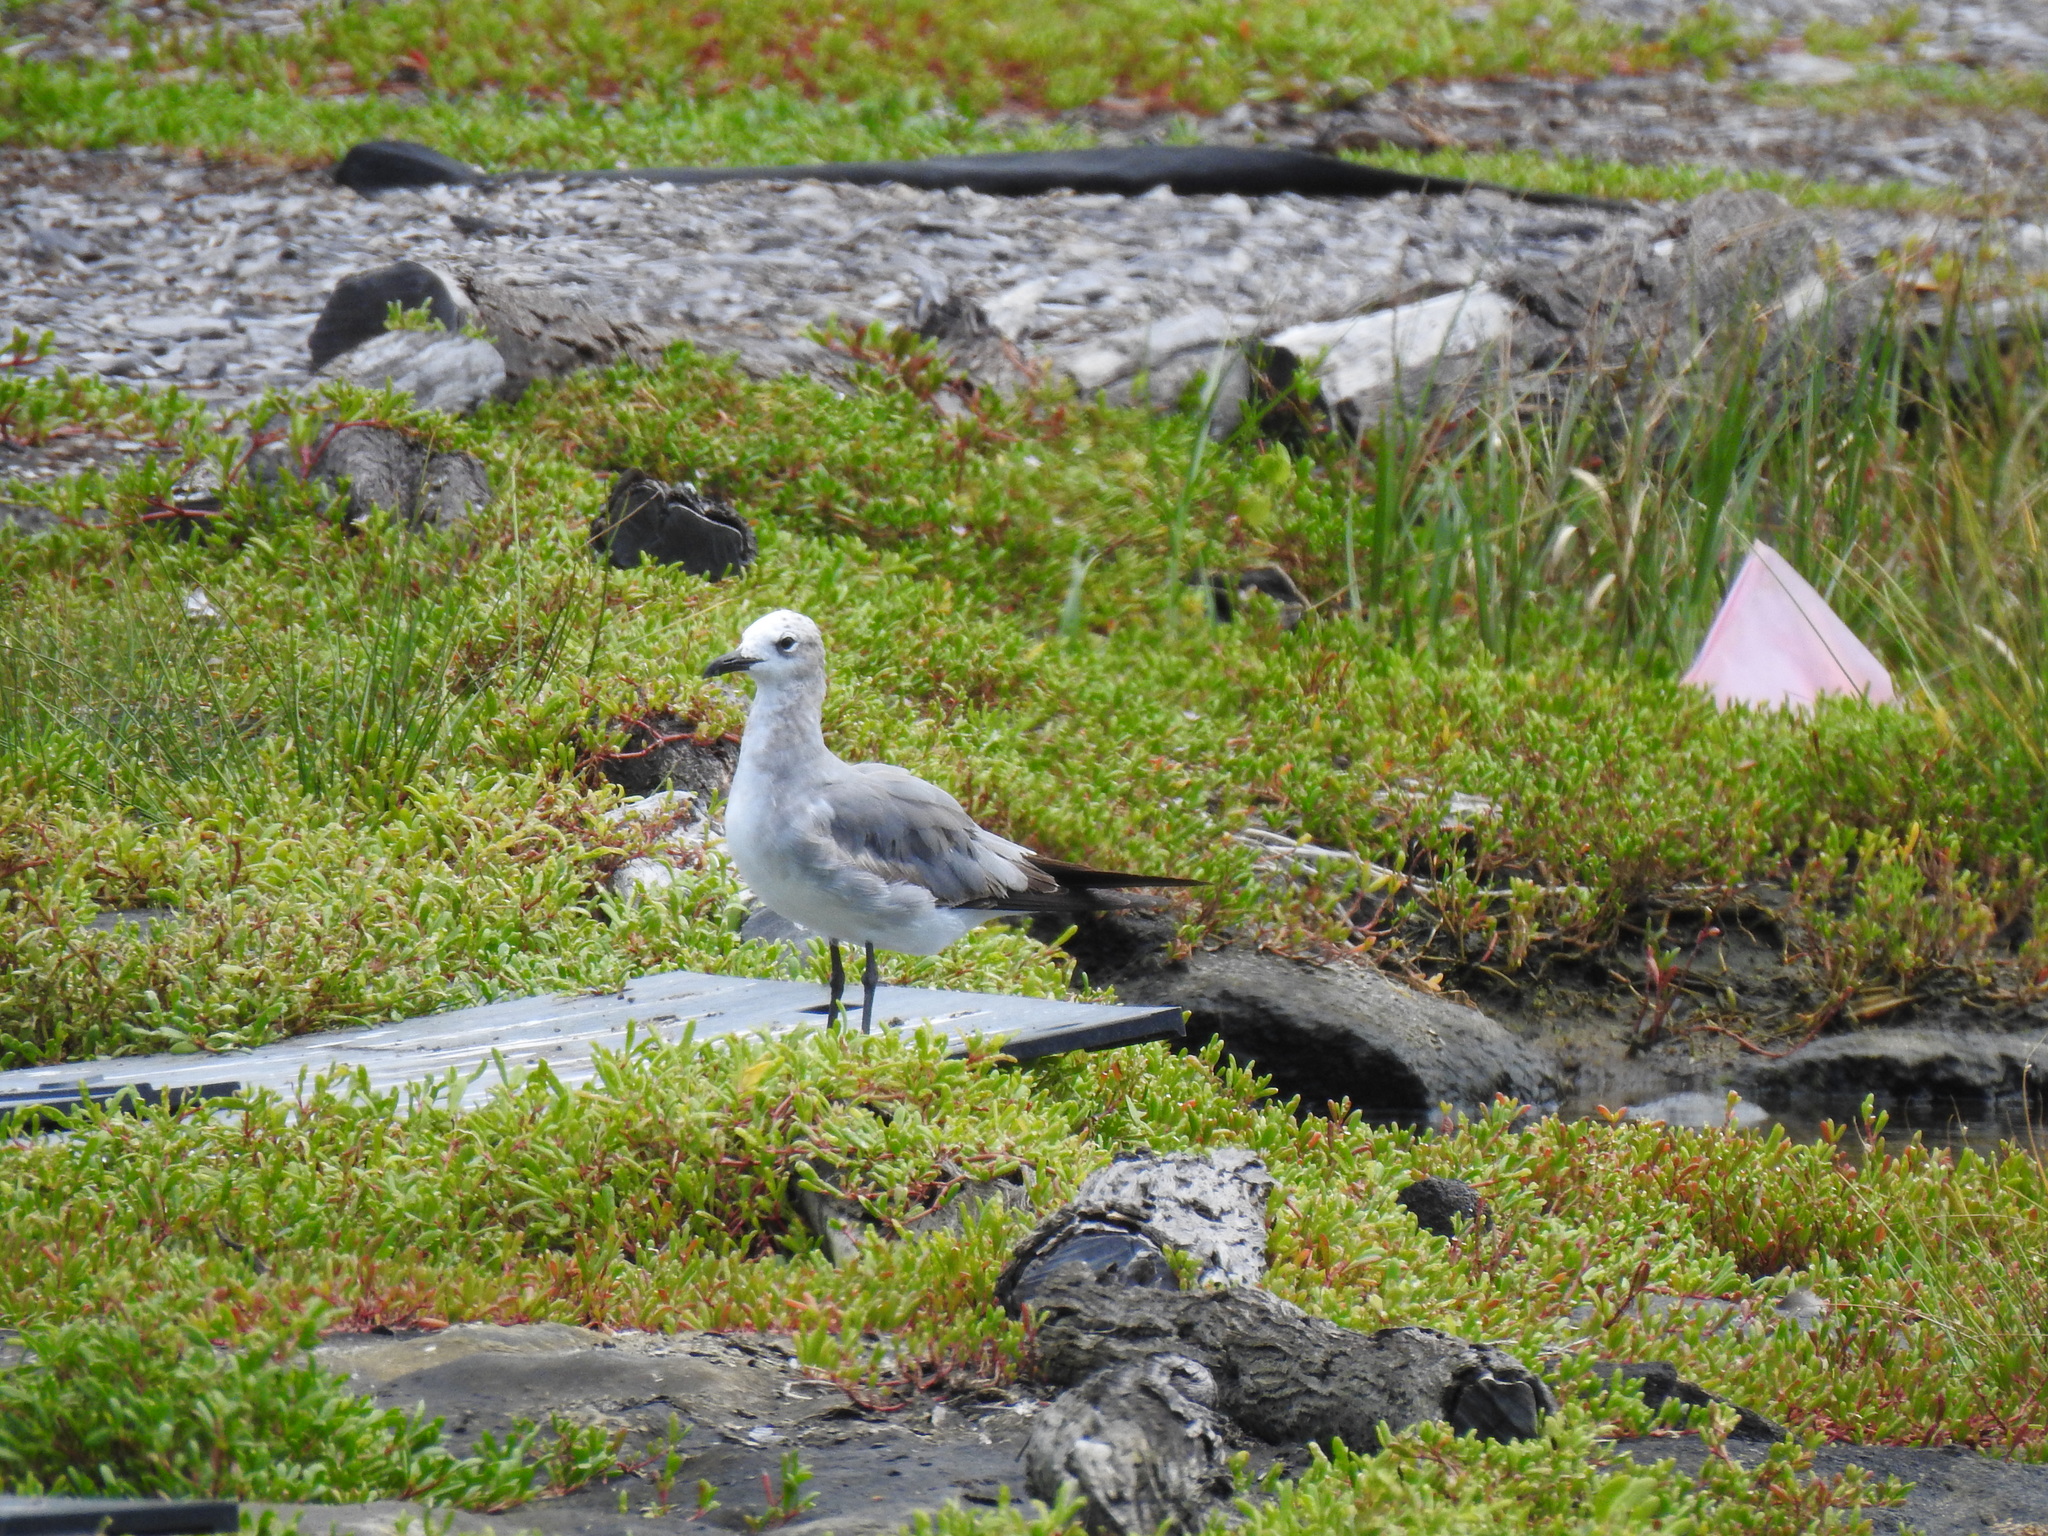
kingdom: Animalia
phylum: Chordata
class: Aves
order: Charadriiformes
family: Laridae
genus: Leucophaeus
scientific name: Leucophaeus atricilla
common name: Laughing gull
